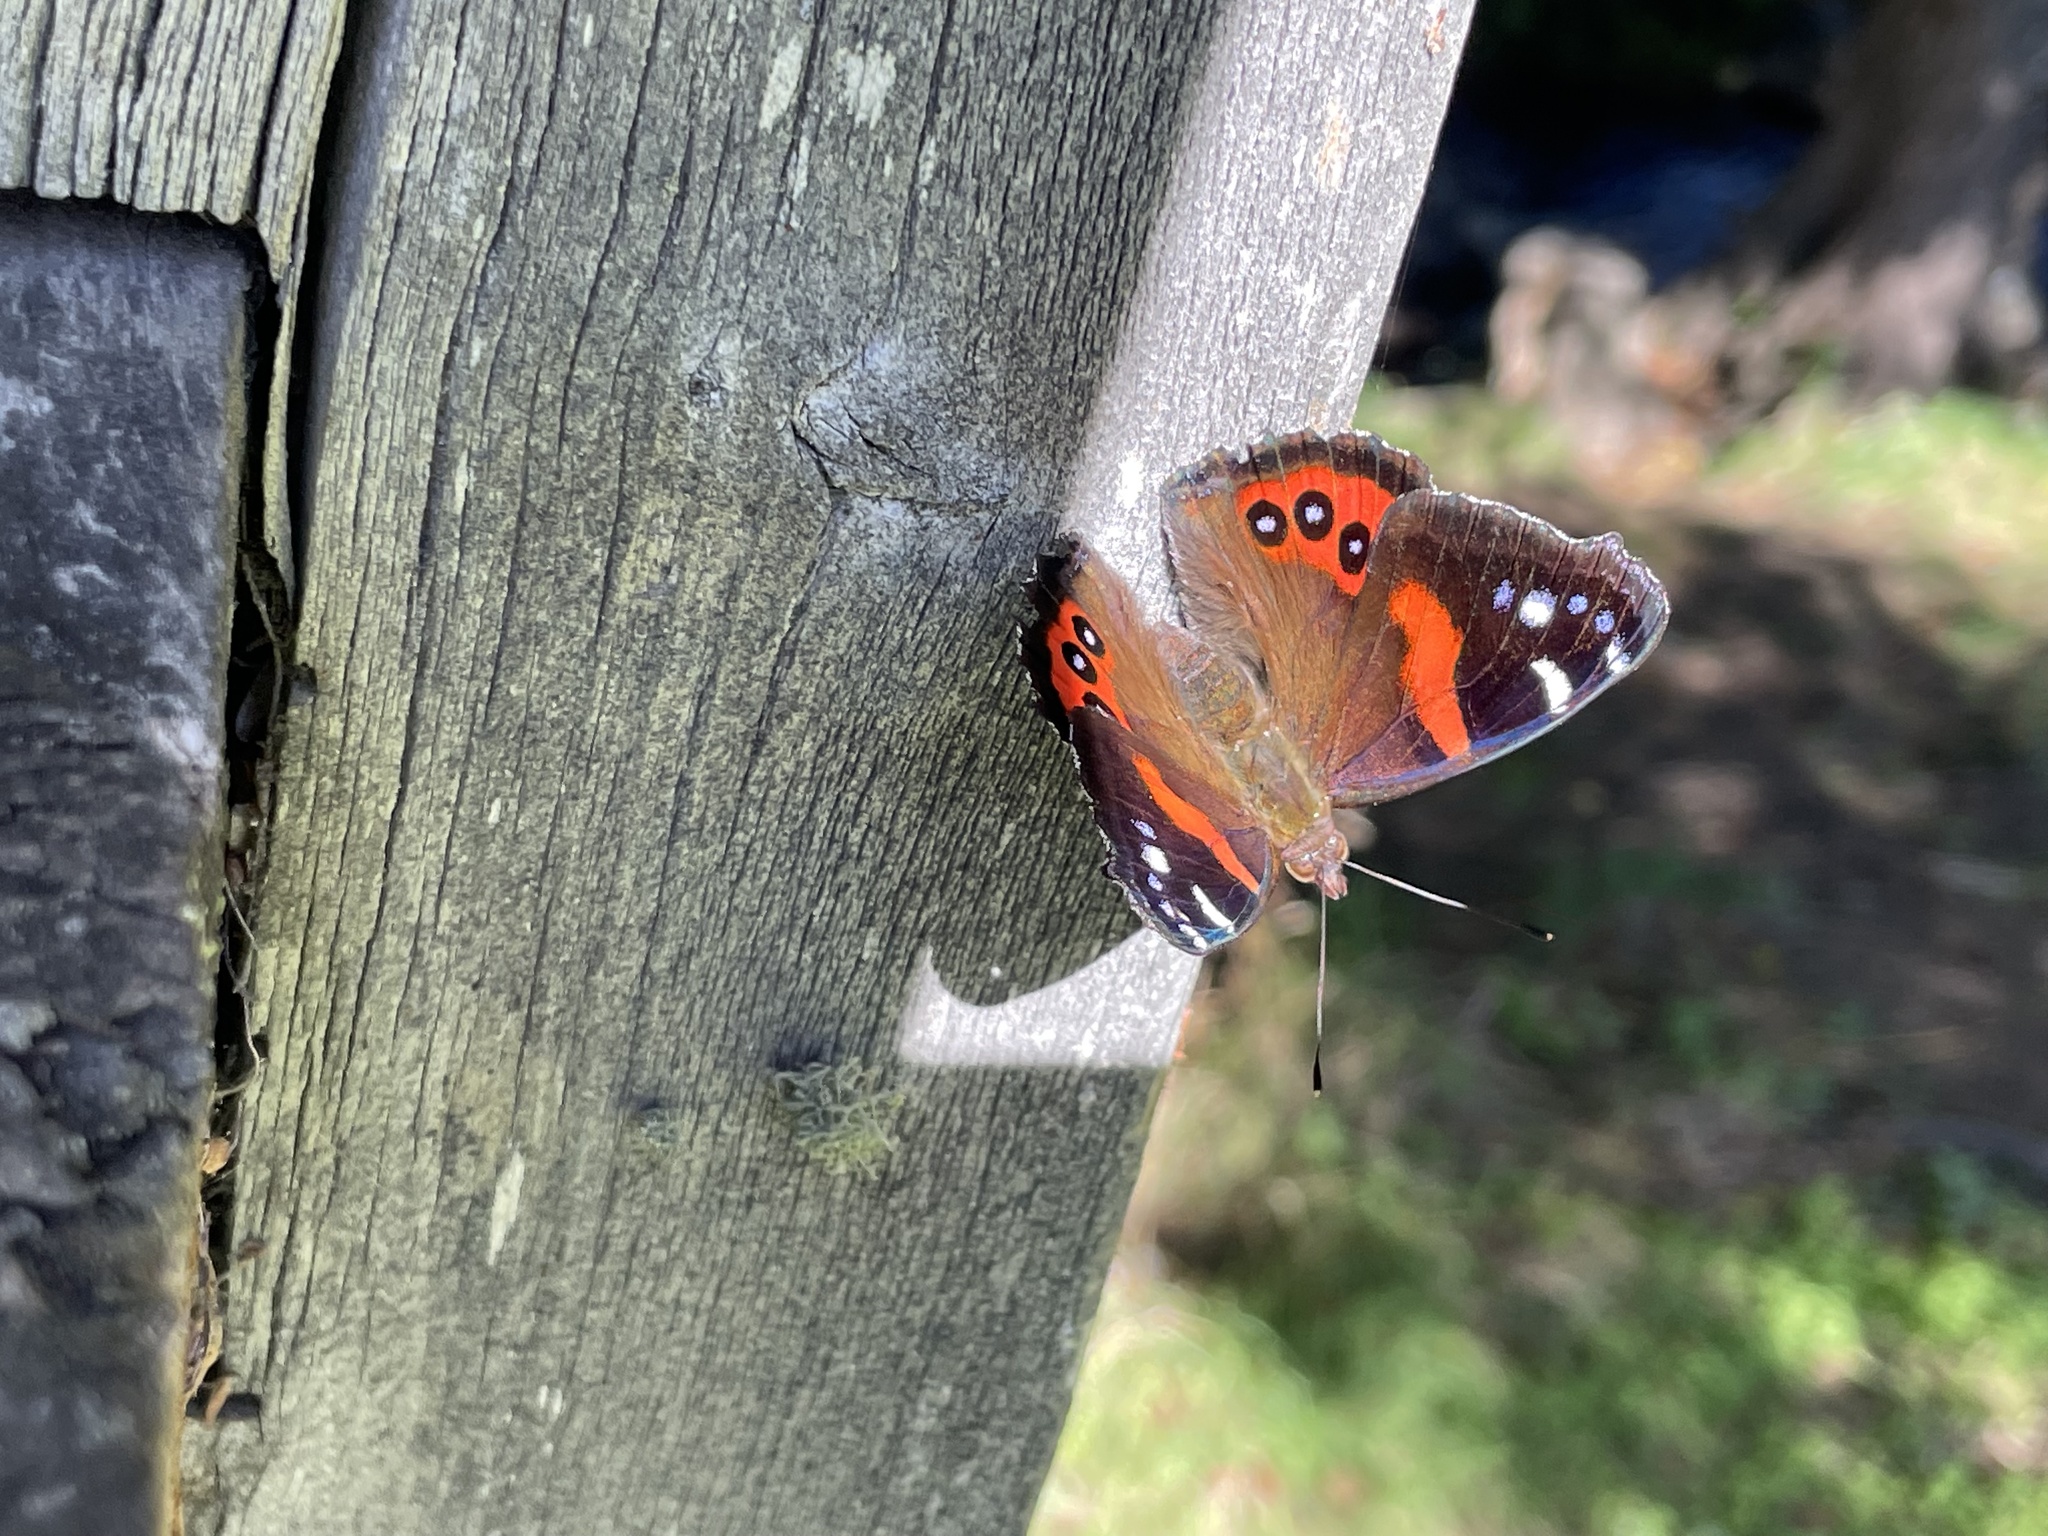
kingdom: Animalia
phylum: Arthropoda
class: Insecta
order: Lepidoptera
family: Nymphalidae
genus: Vanessa
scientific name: Vanessa gonerilla
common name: New zealand red admiral
